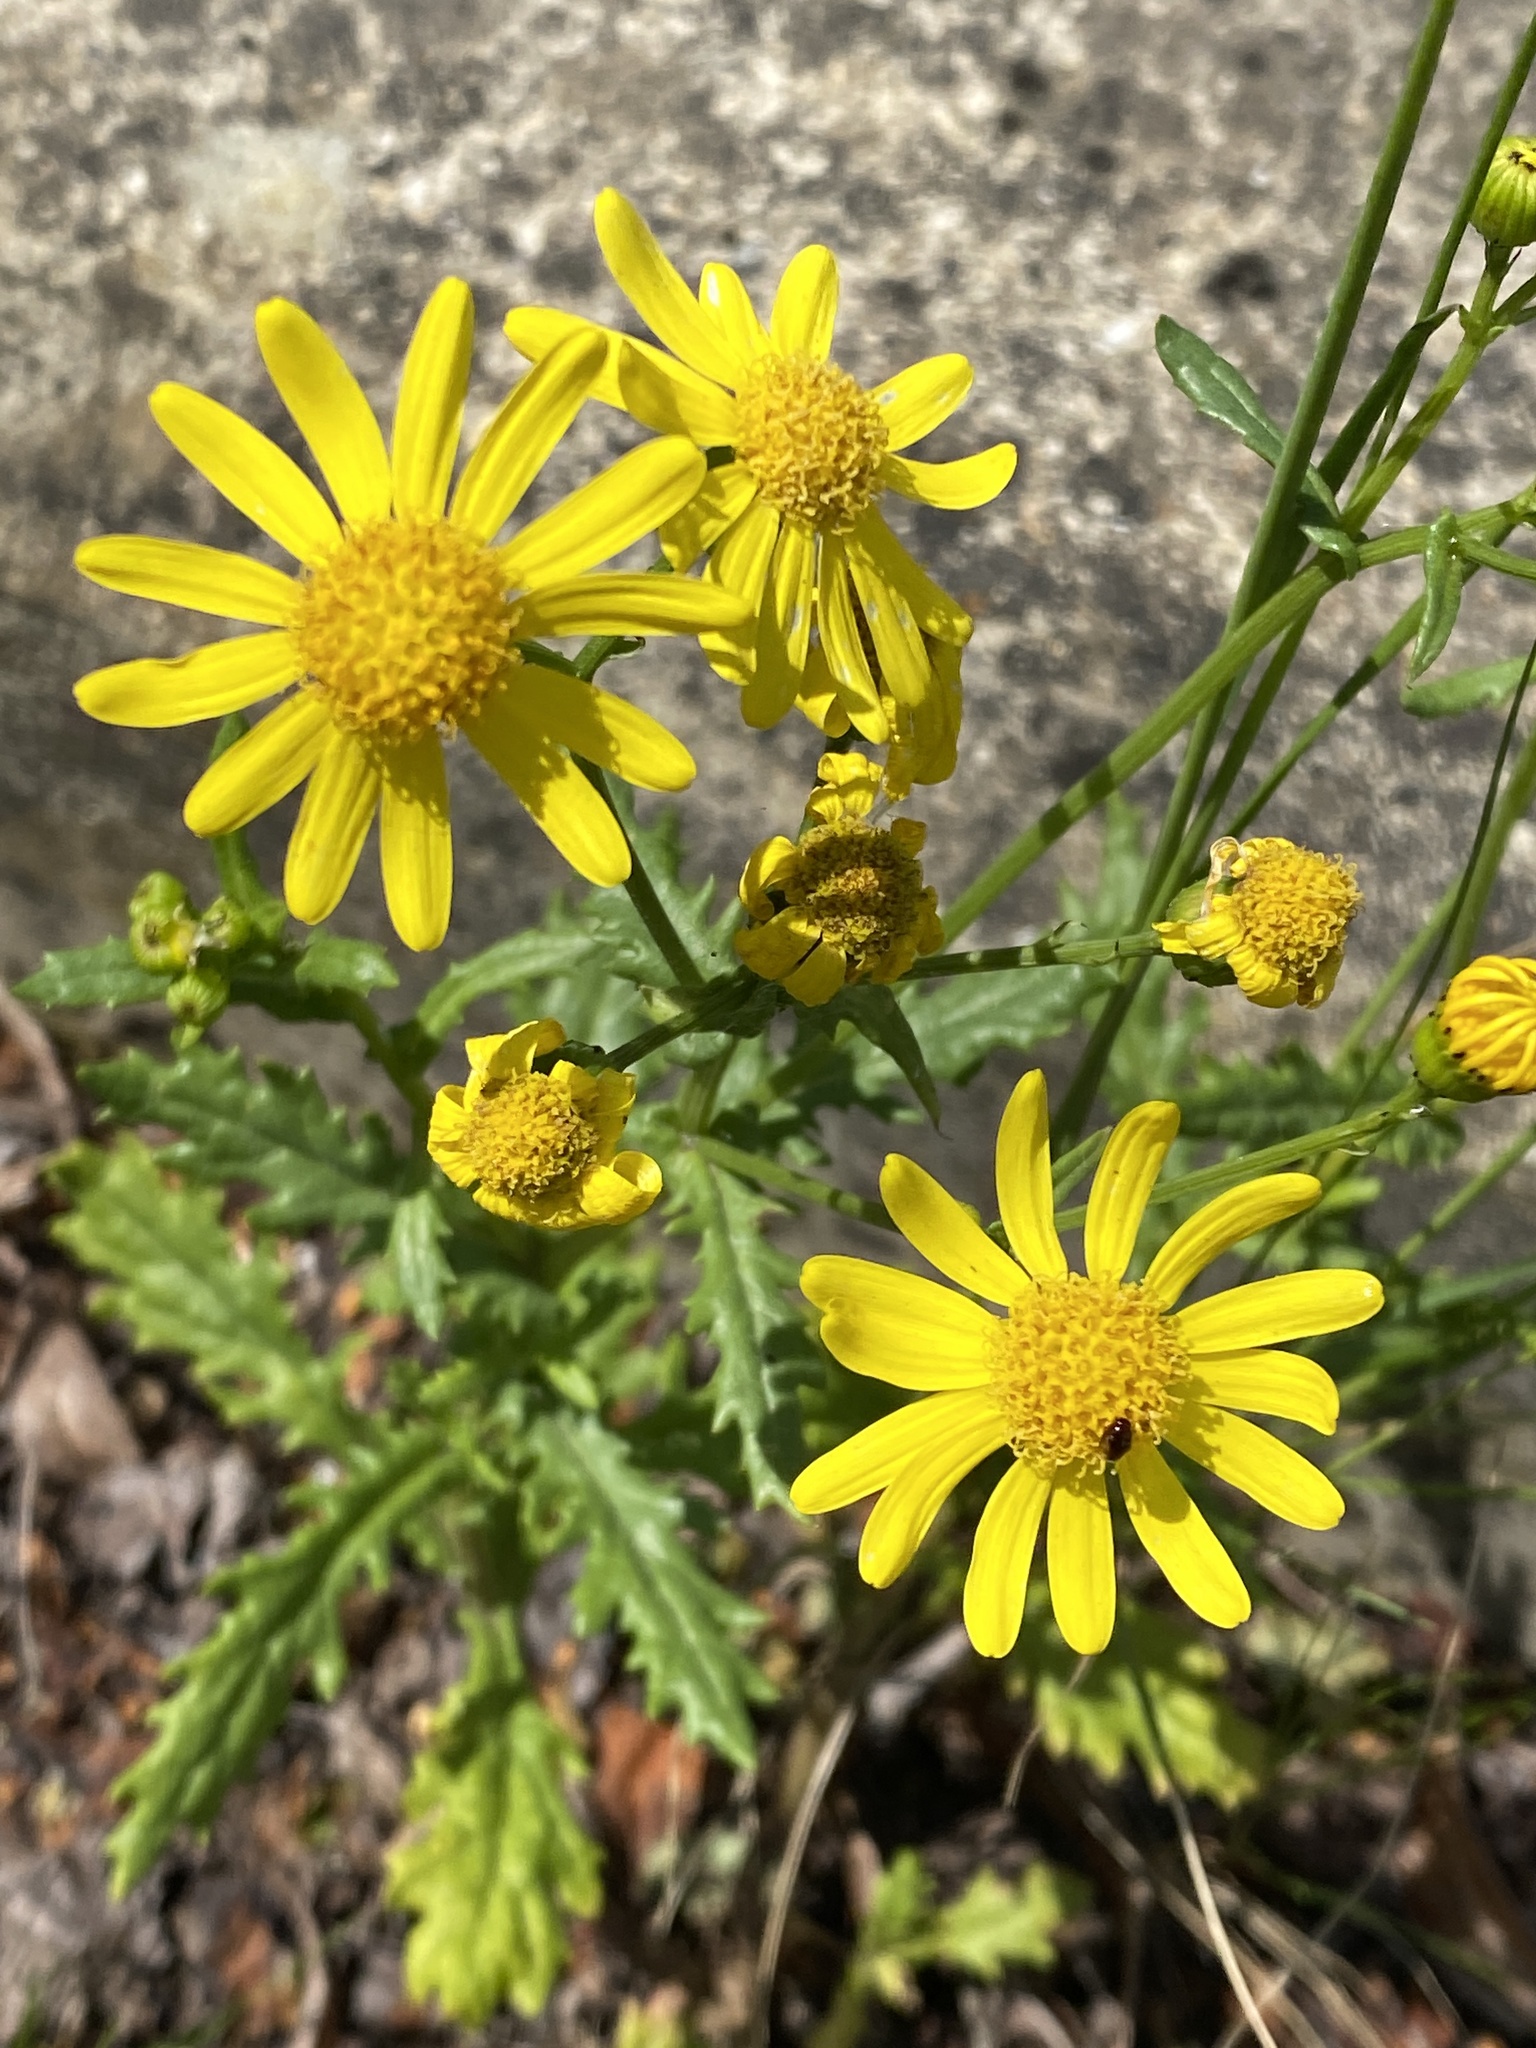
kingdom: Plantae
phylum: Tracheophyta
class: Magnoliopsida
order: Asterales
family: Asteraceae
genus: Senecio
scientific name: Senecio squalidus
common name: Oxford ragwort
